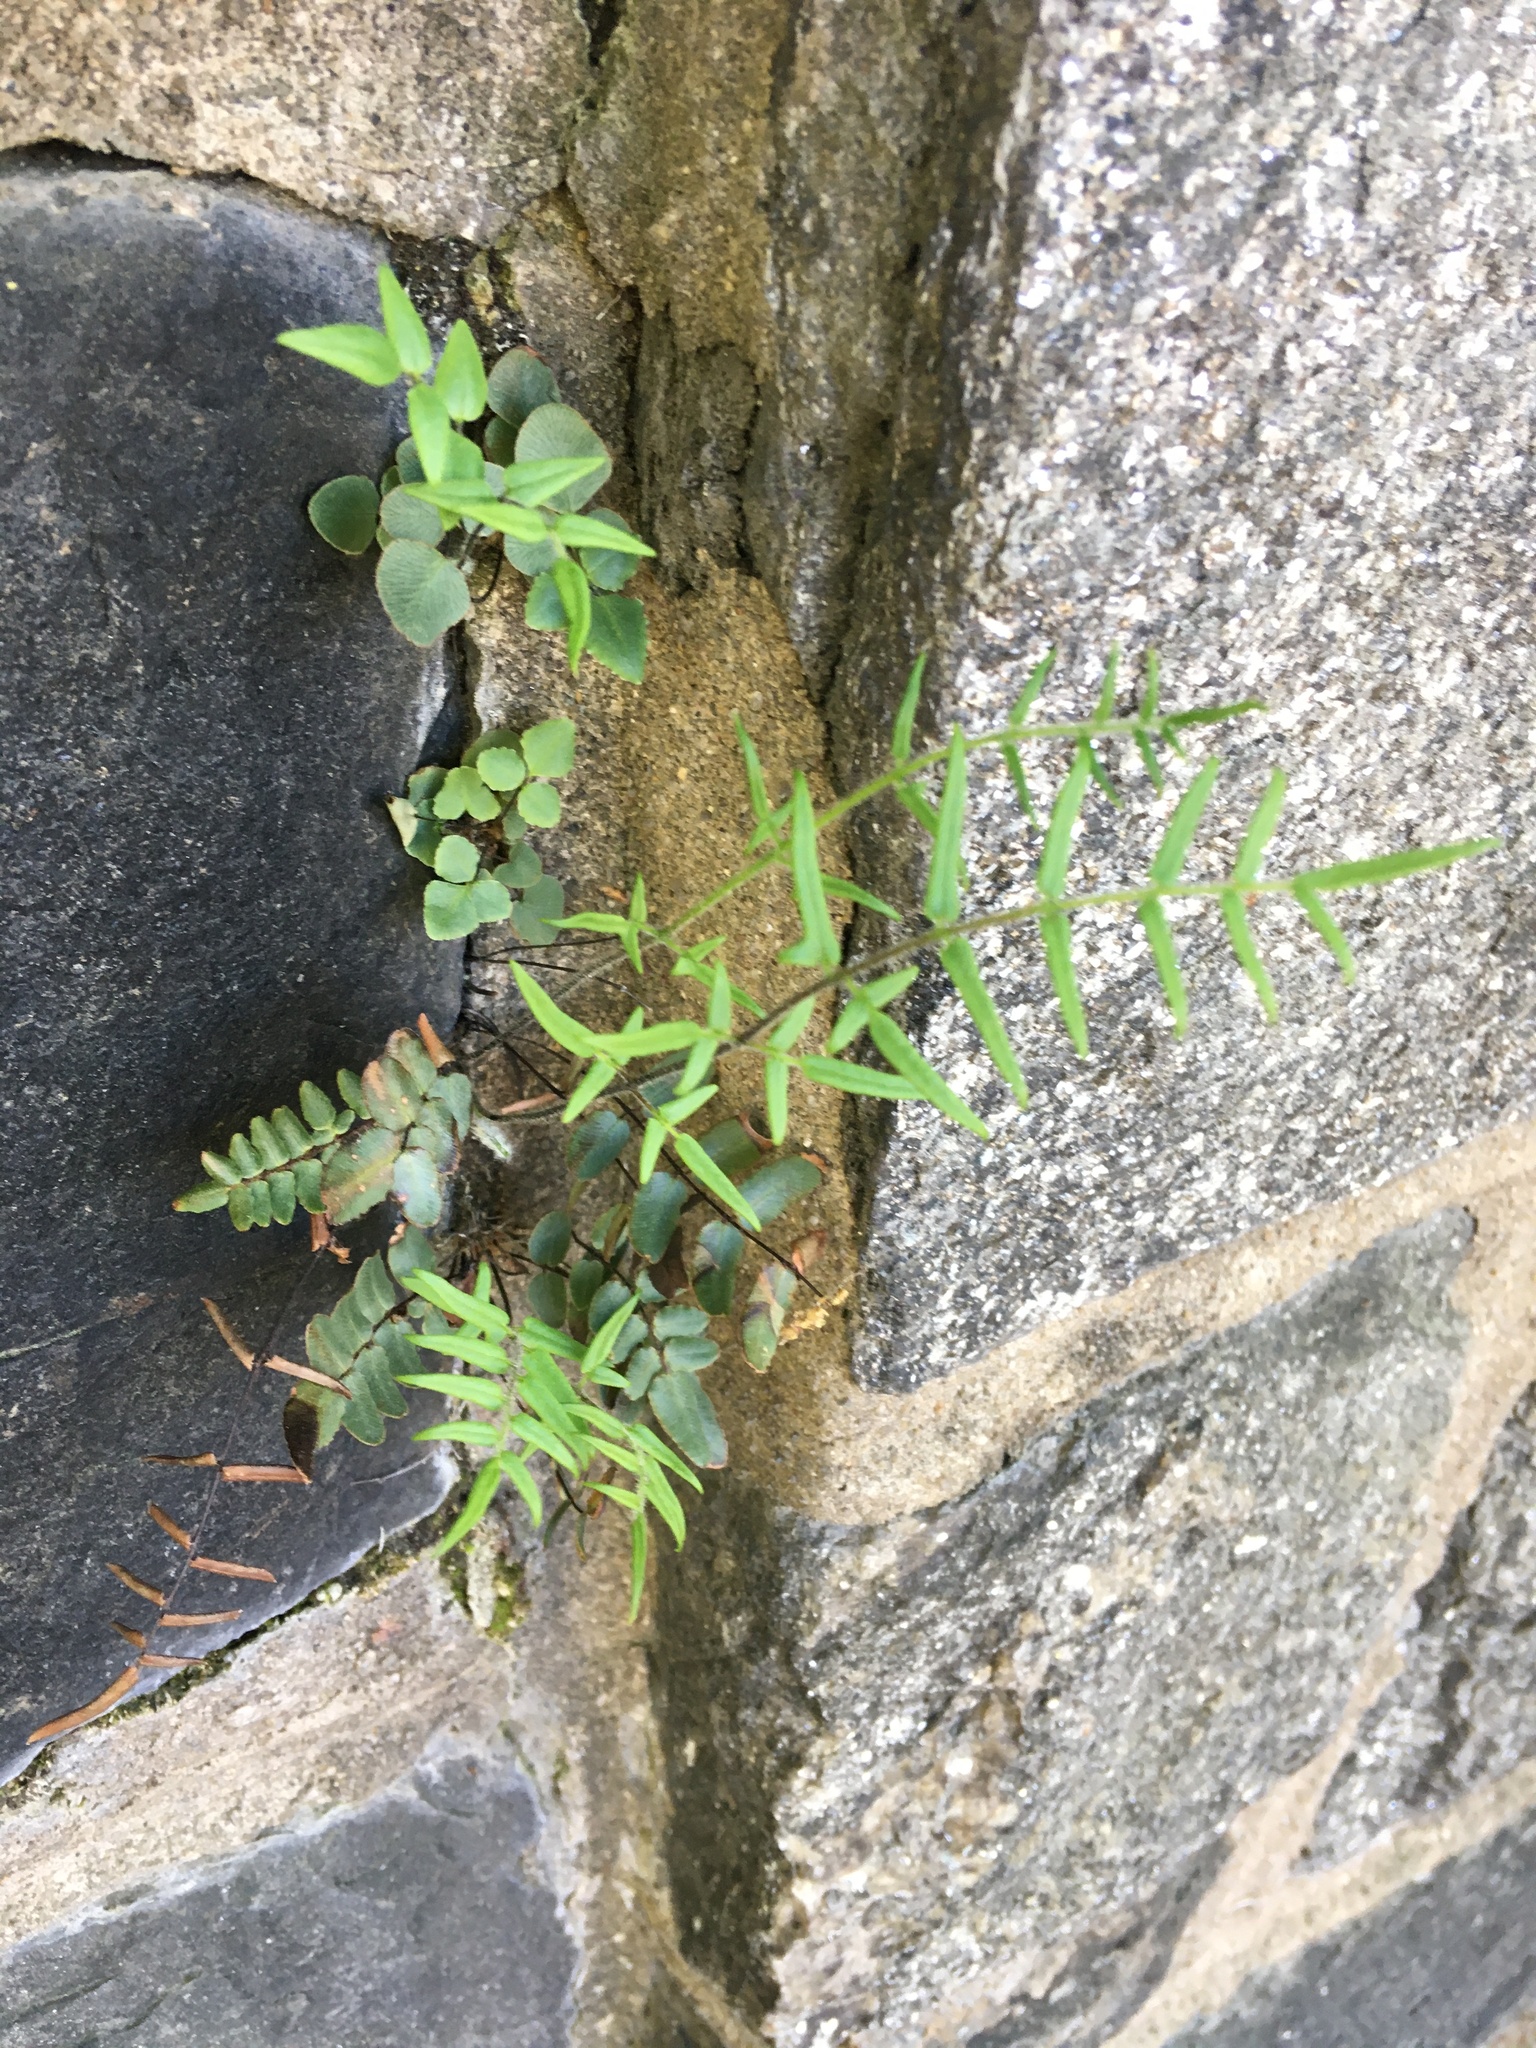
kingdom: Plantae
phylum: Tracheophyta
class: Polypodiopsida
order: Polypodiales
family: Pteridaceae
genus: Pellaea
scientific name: Pellaea atropurpurea
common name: Hairy cliffbrake
